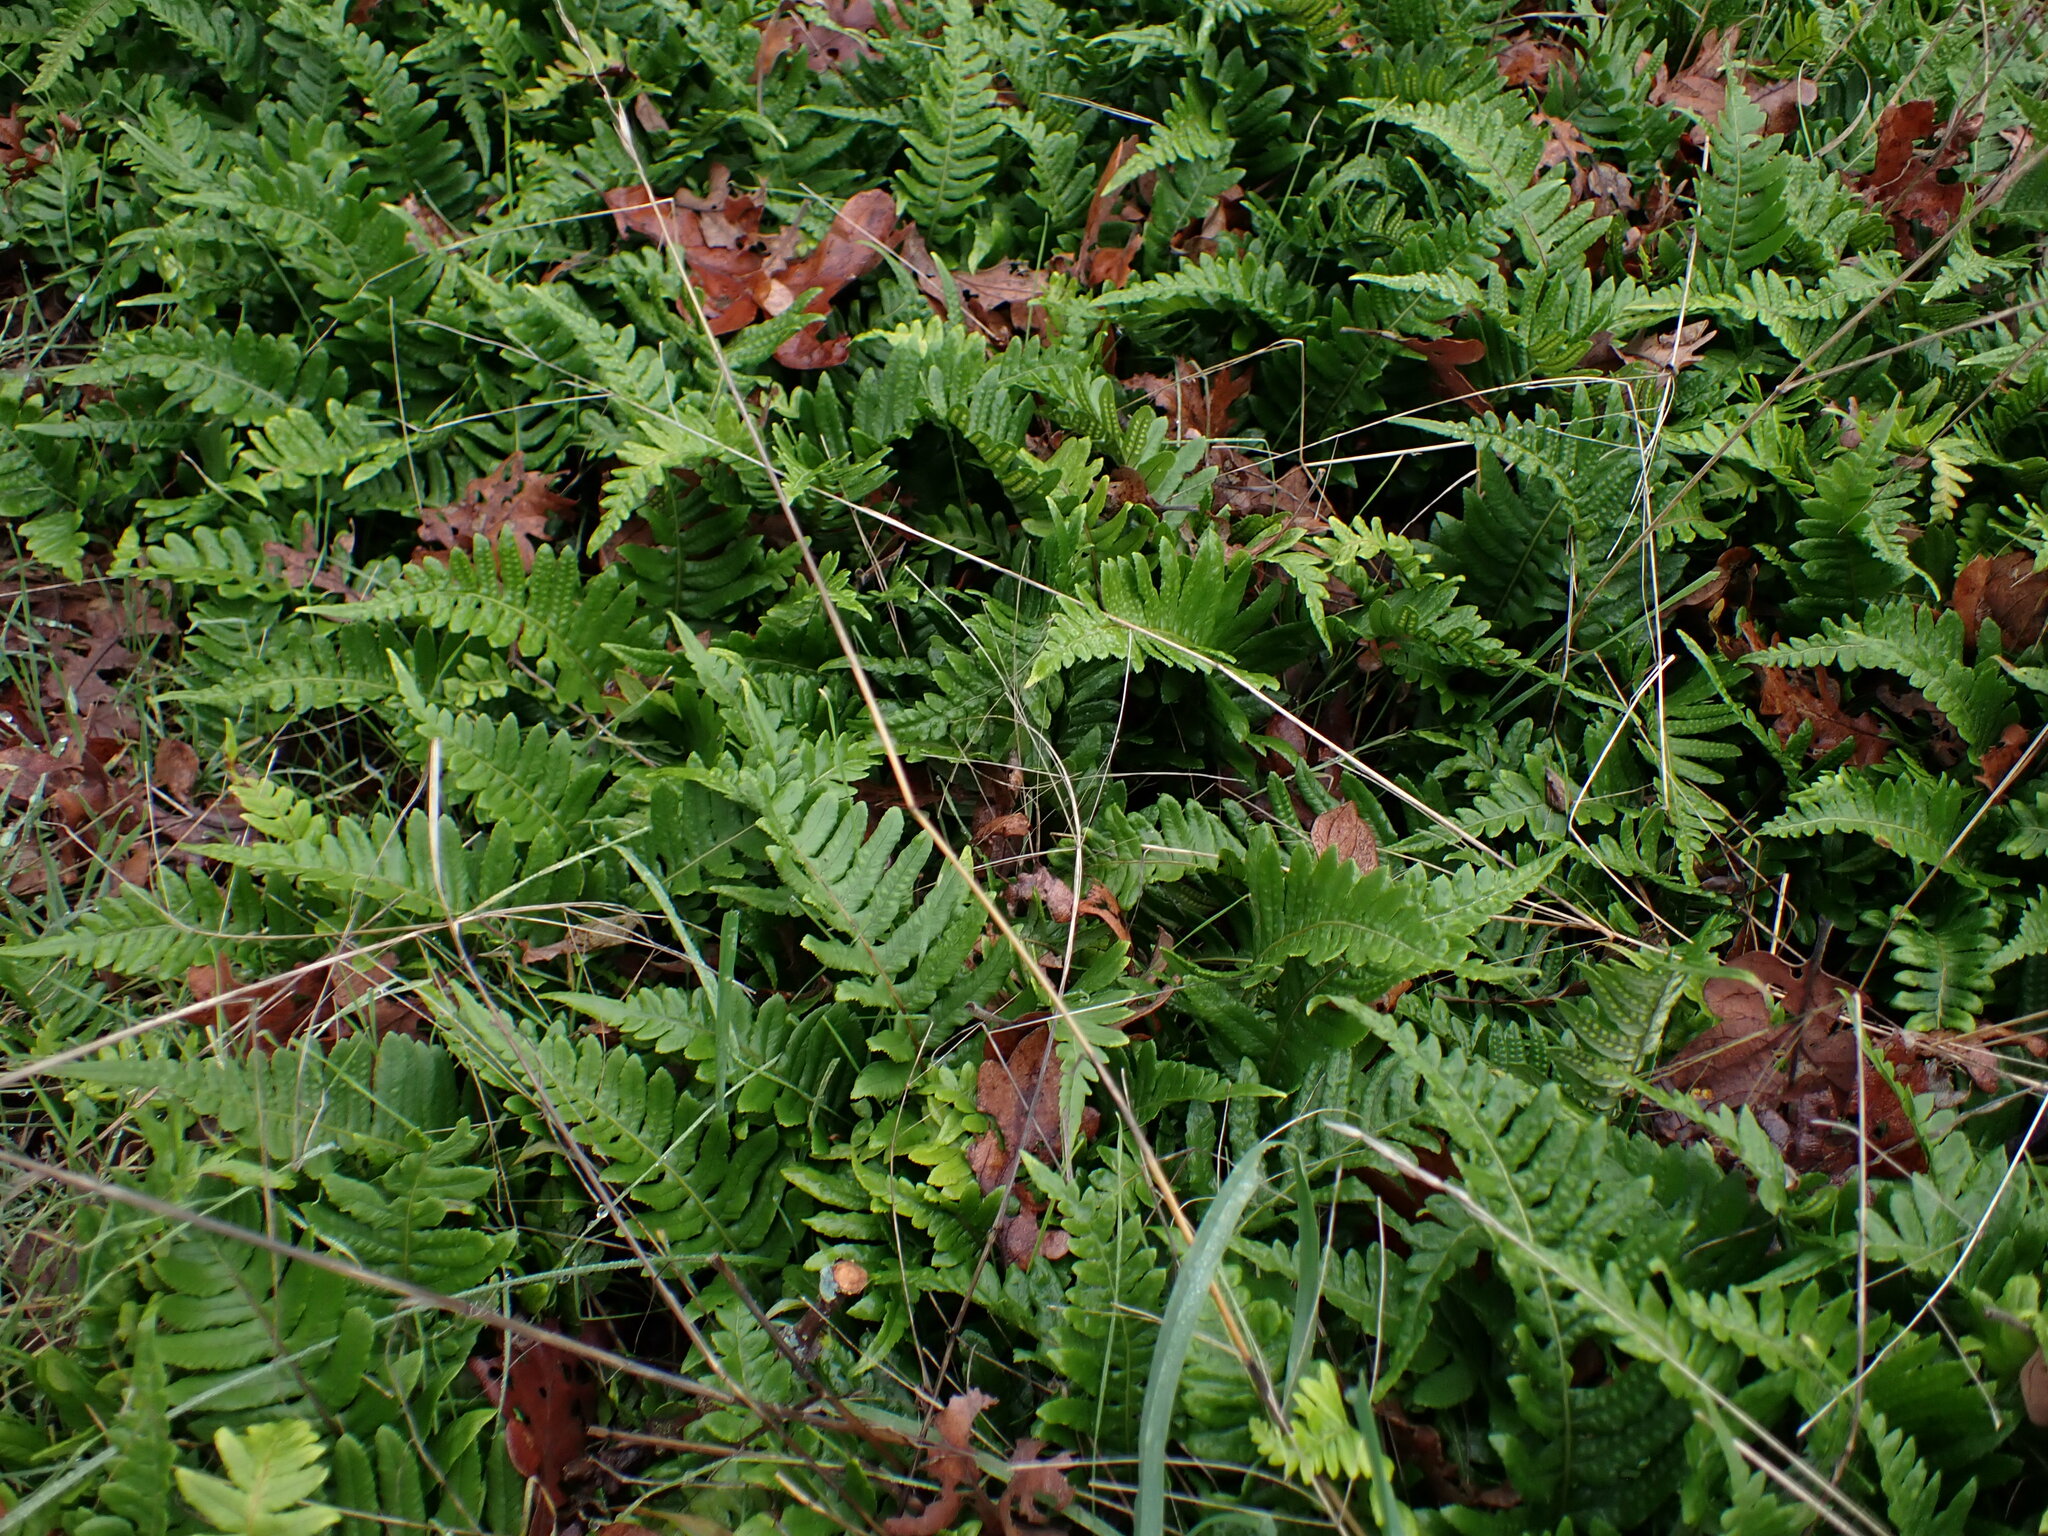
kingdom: Plantae
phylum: Tracheophyta
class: Polypodiopsida
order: Polypodiales
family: Polypodiaceae
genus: Polypodium
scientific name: Polypodium glycyrrhiza
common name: Licorice fern
